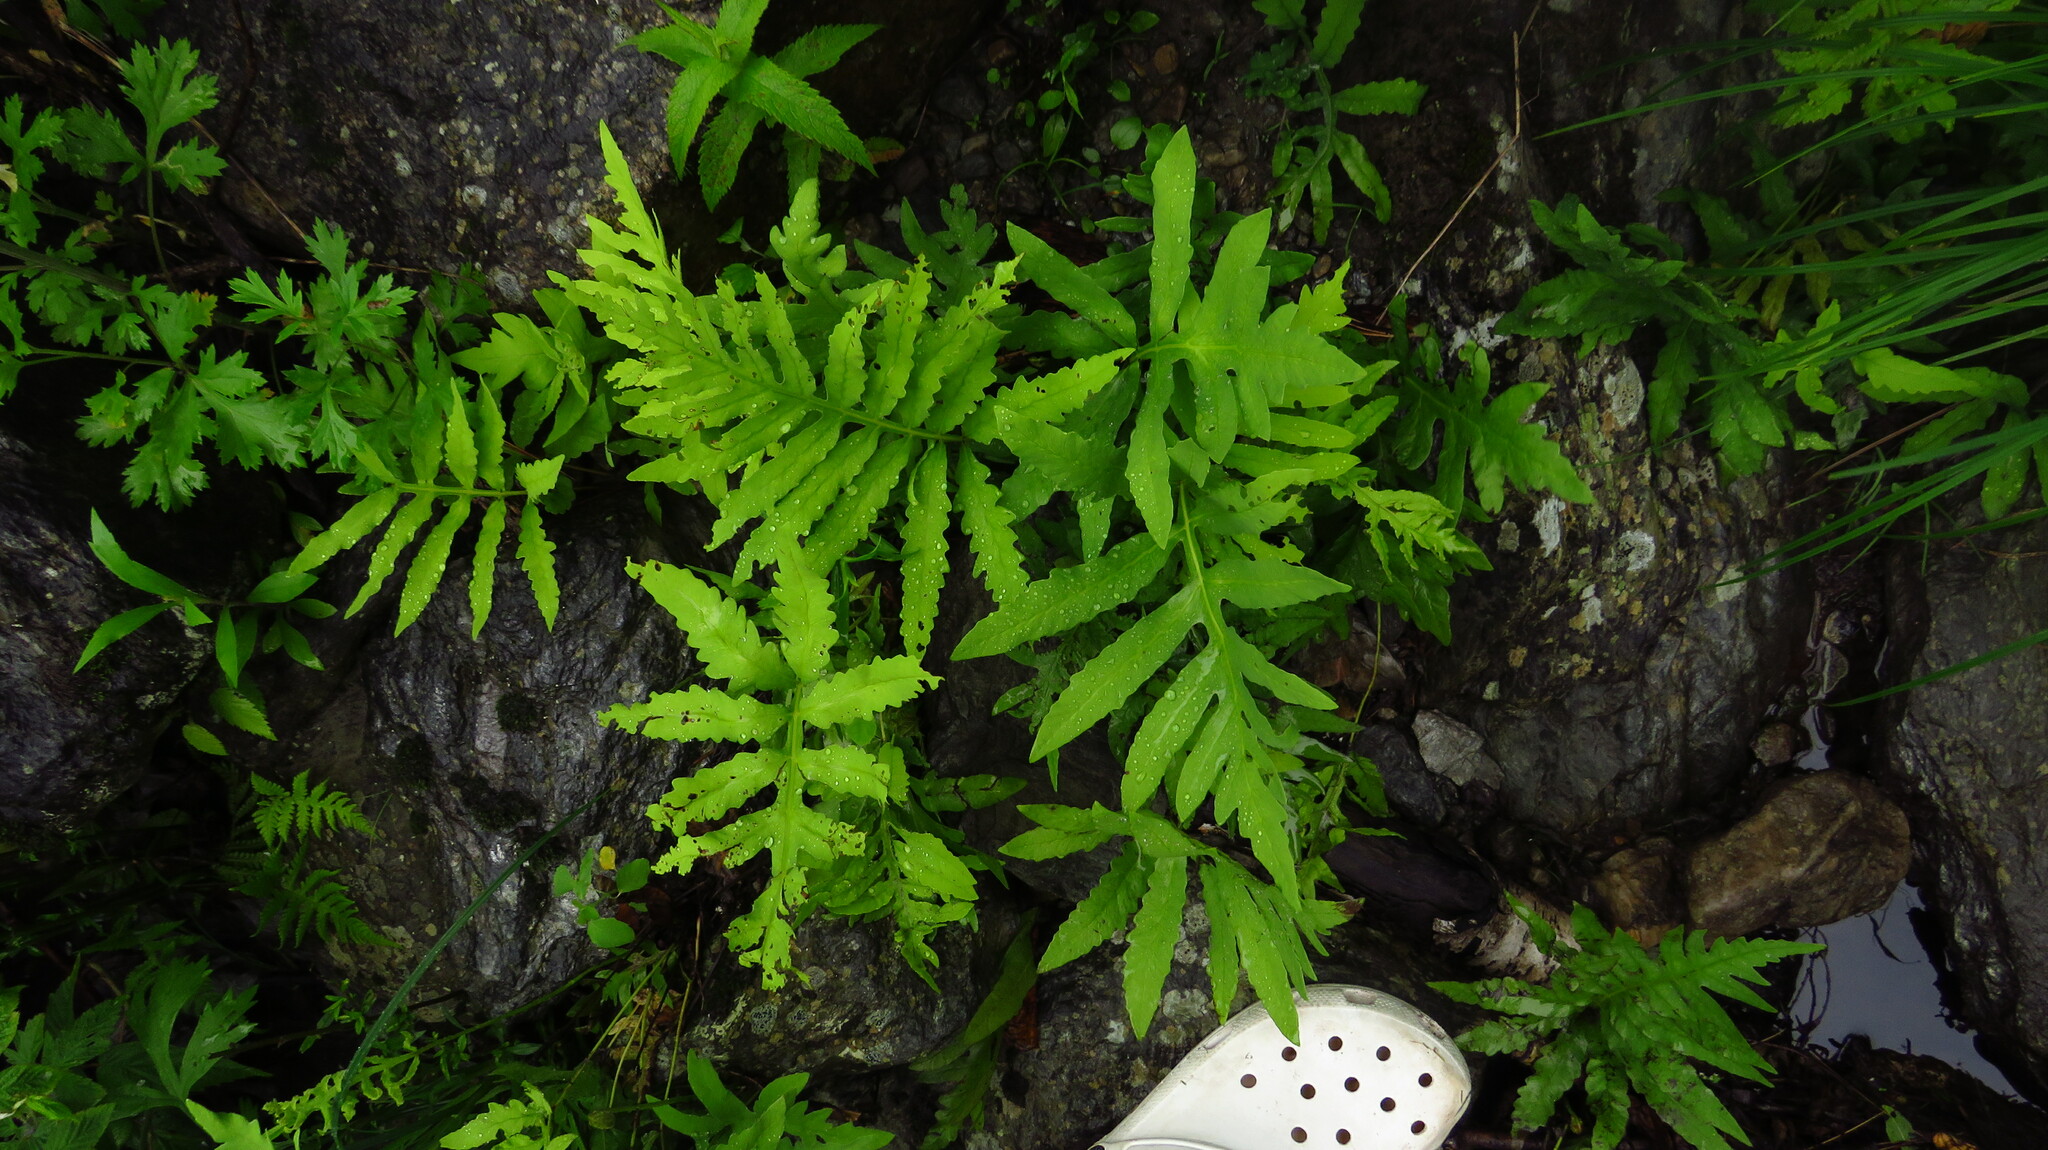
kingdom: Plantae
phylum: Tracheophyta
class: Polypodiopsida
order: Polypodiales
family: Onocleaceae
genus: Onoclea
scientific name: Onoclea sensibilis
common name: Sensitive fern
